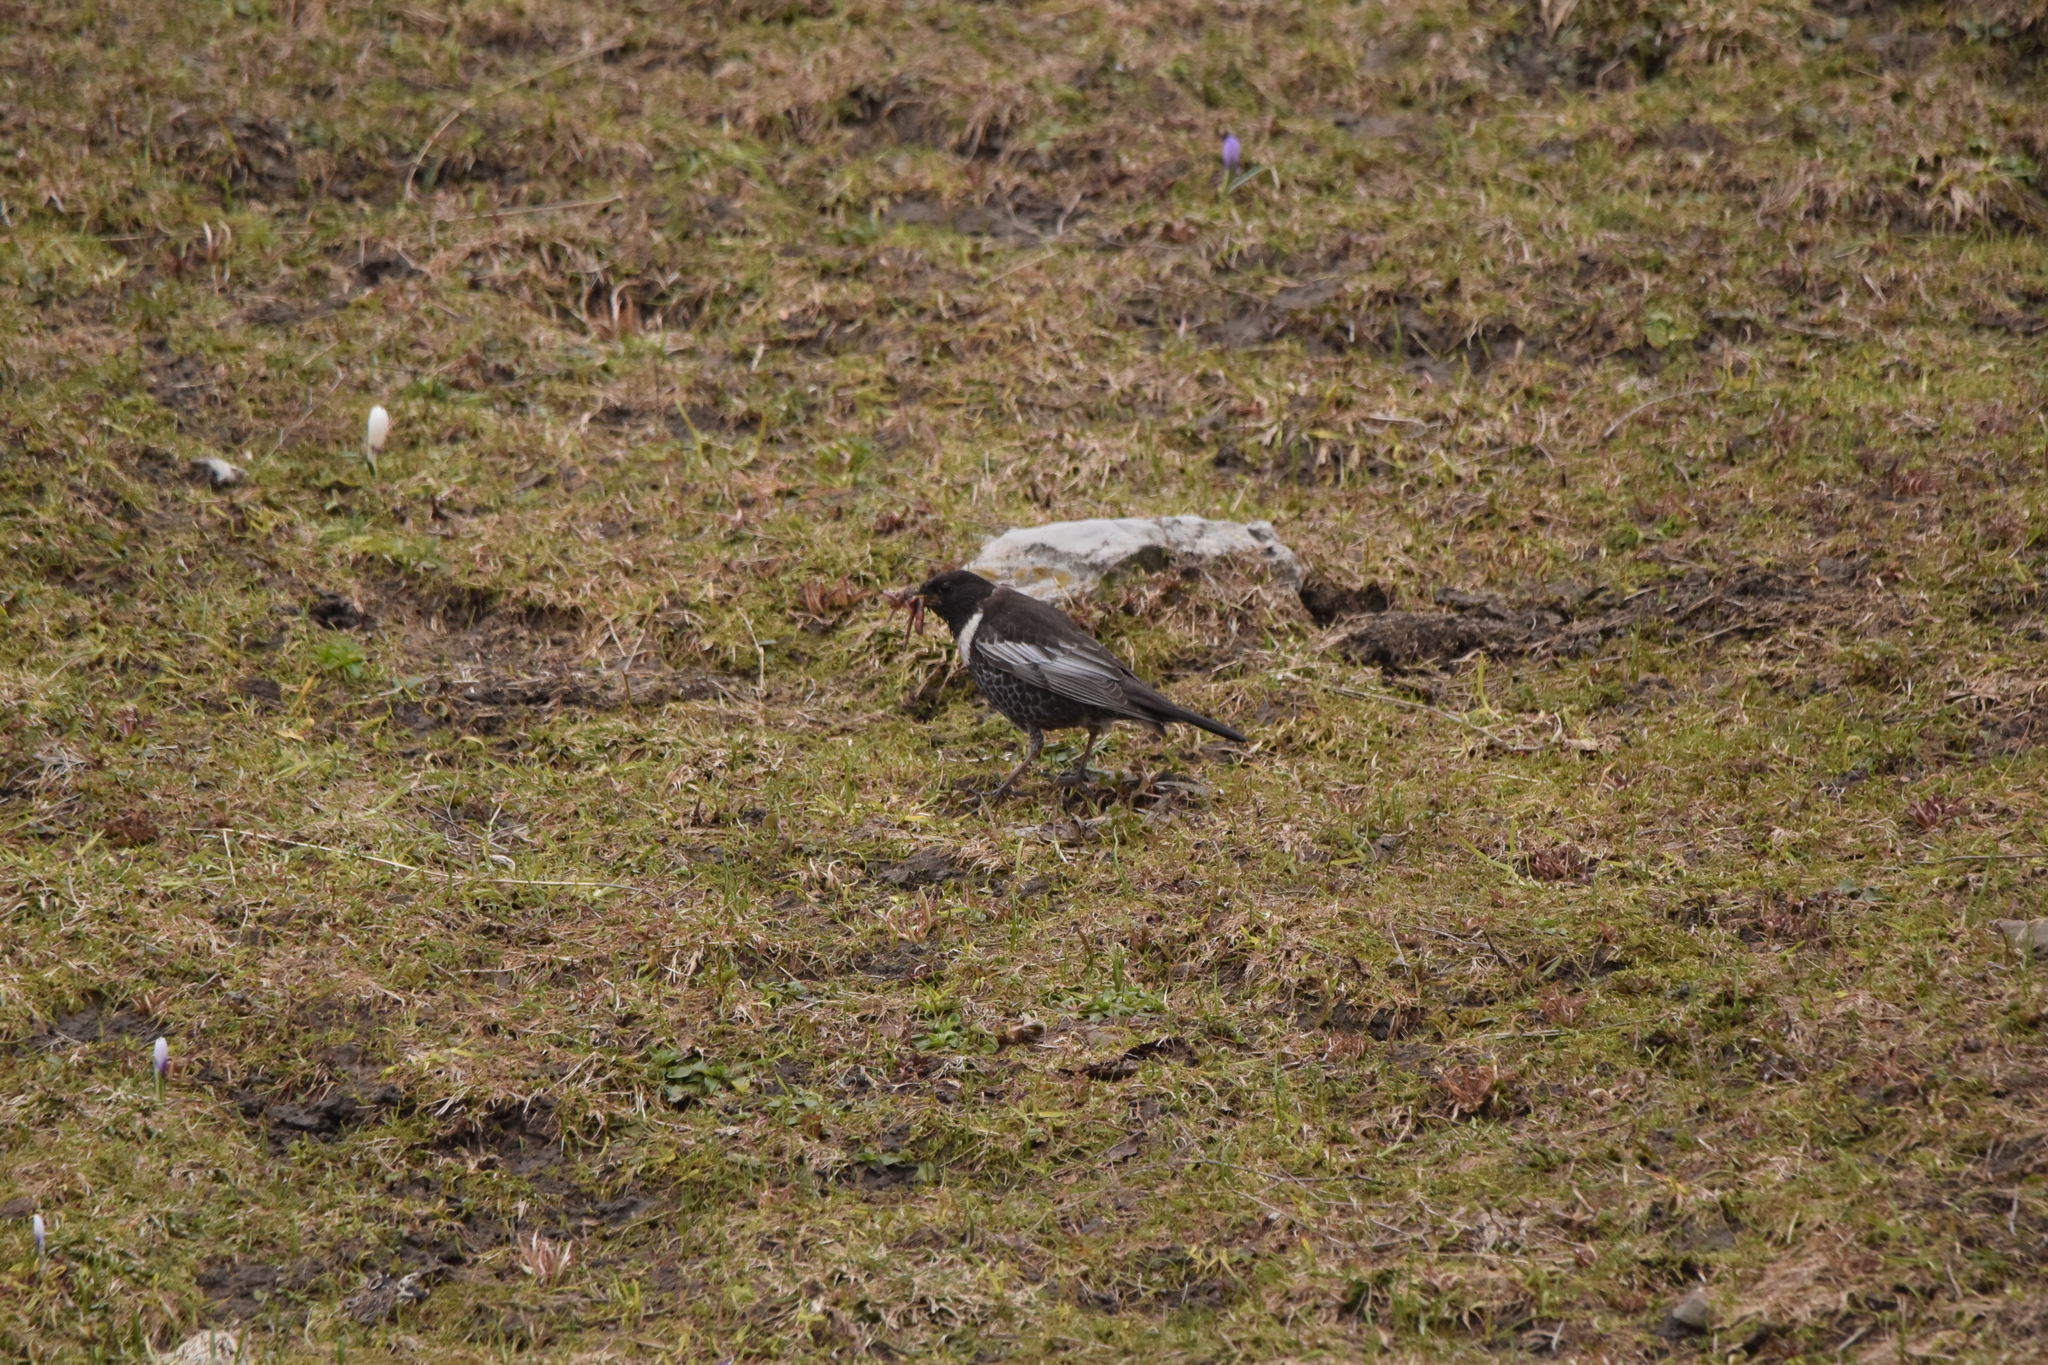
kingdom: Animalia
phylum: Chordata
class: Aves
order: Passeriformes
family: Turdidae
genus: Turdus
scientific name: Turdus torquatus
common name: Ring ouzel
